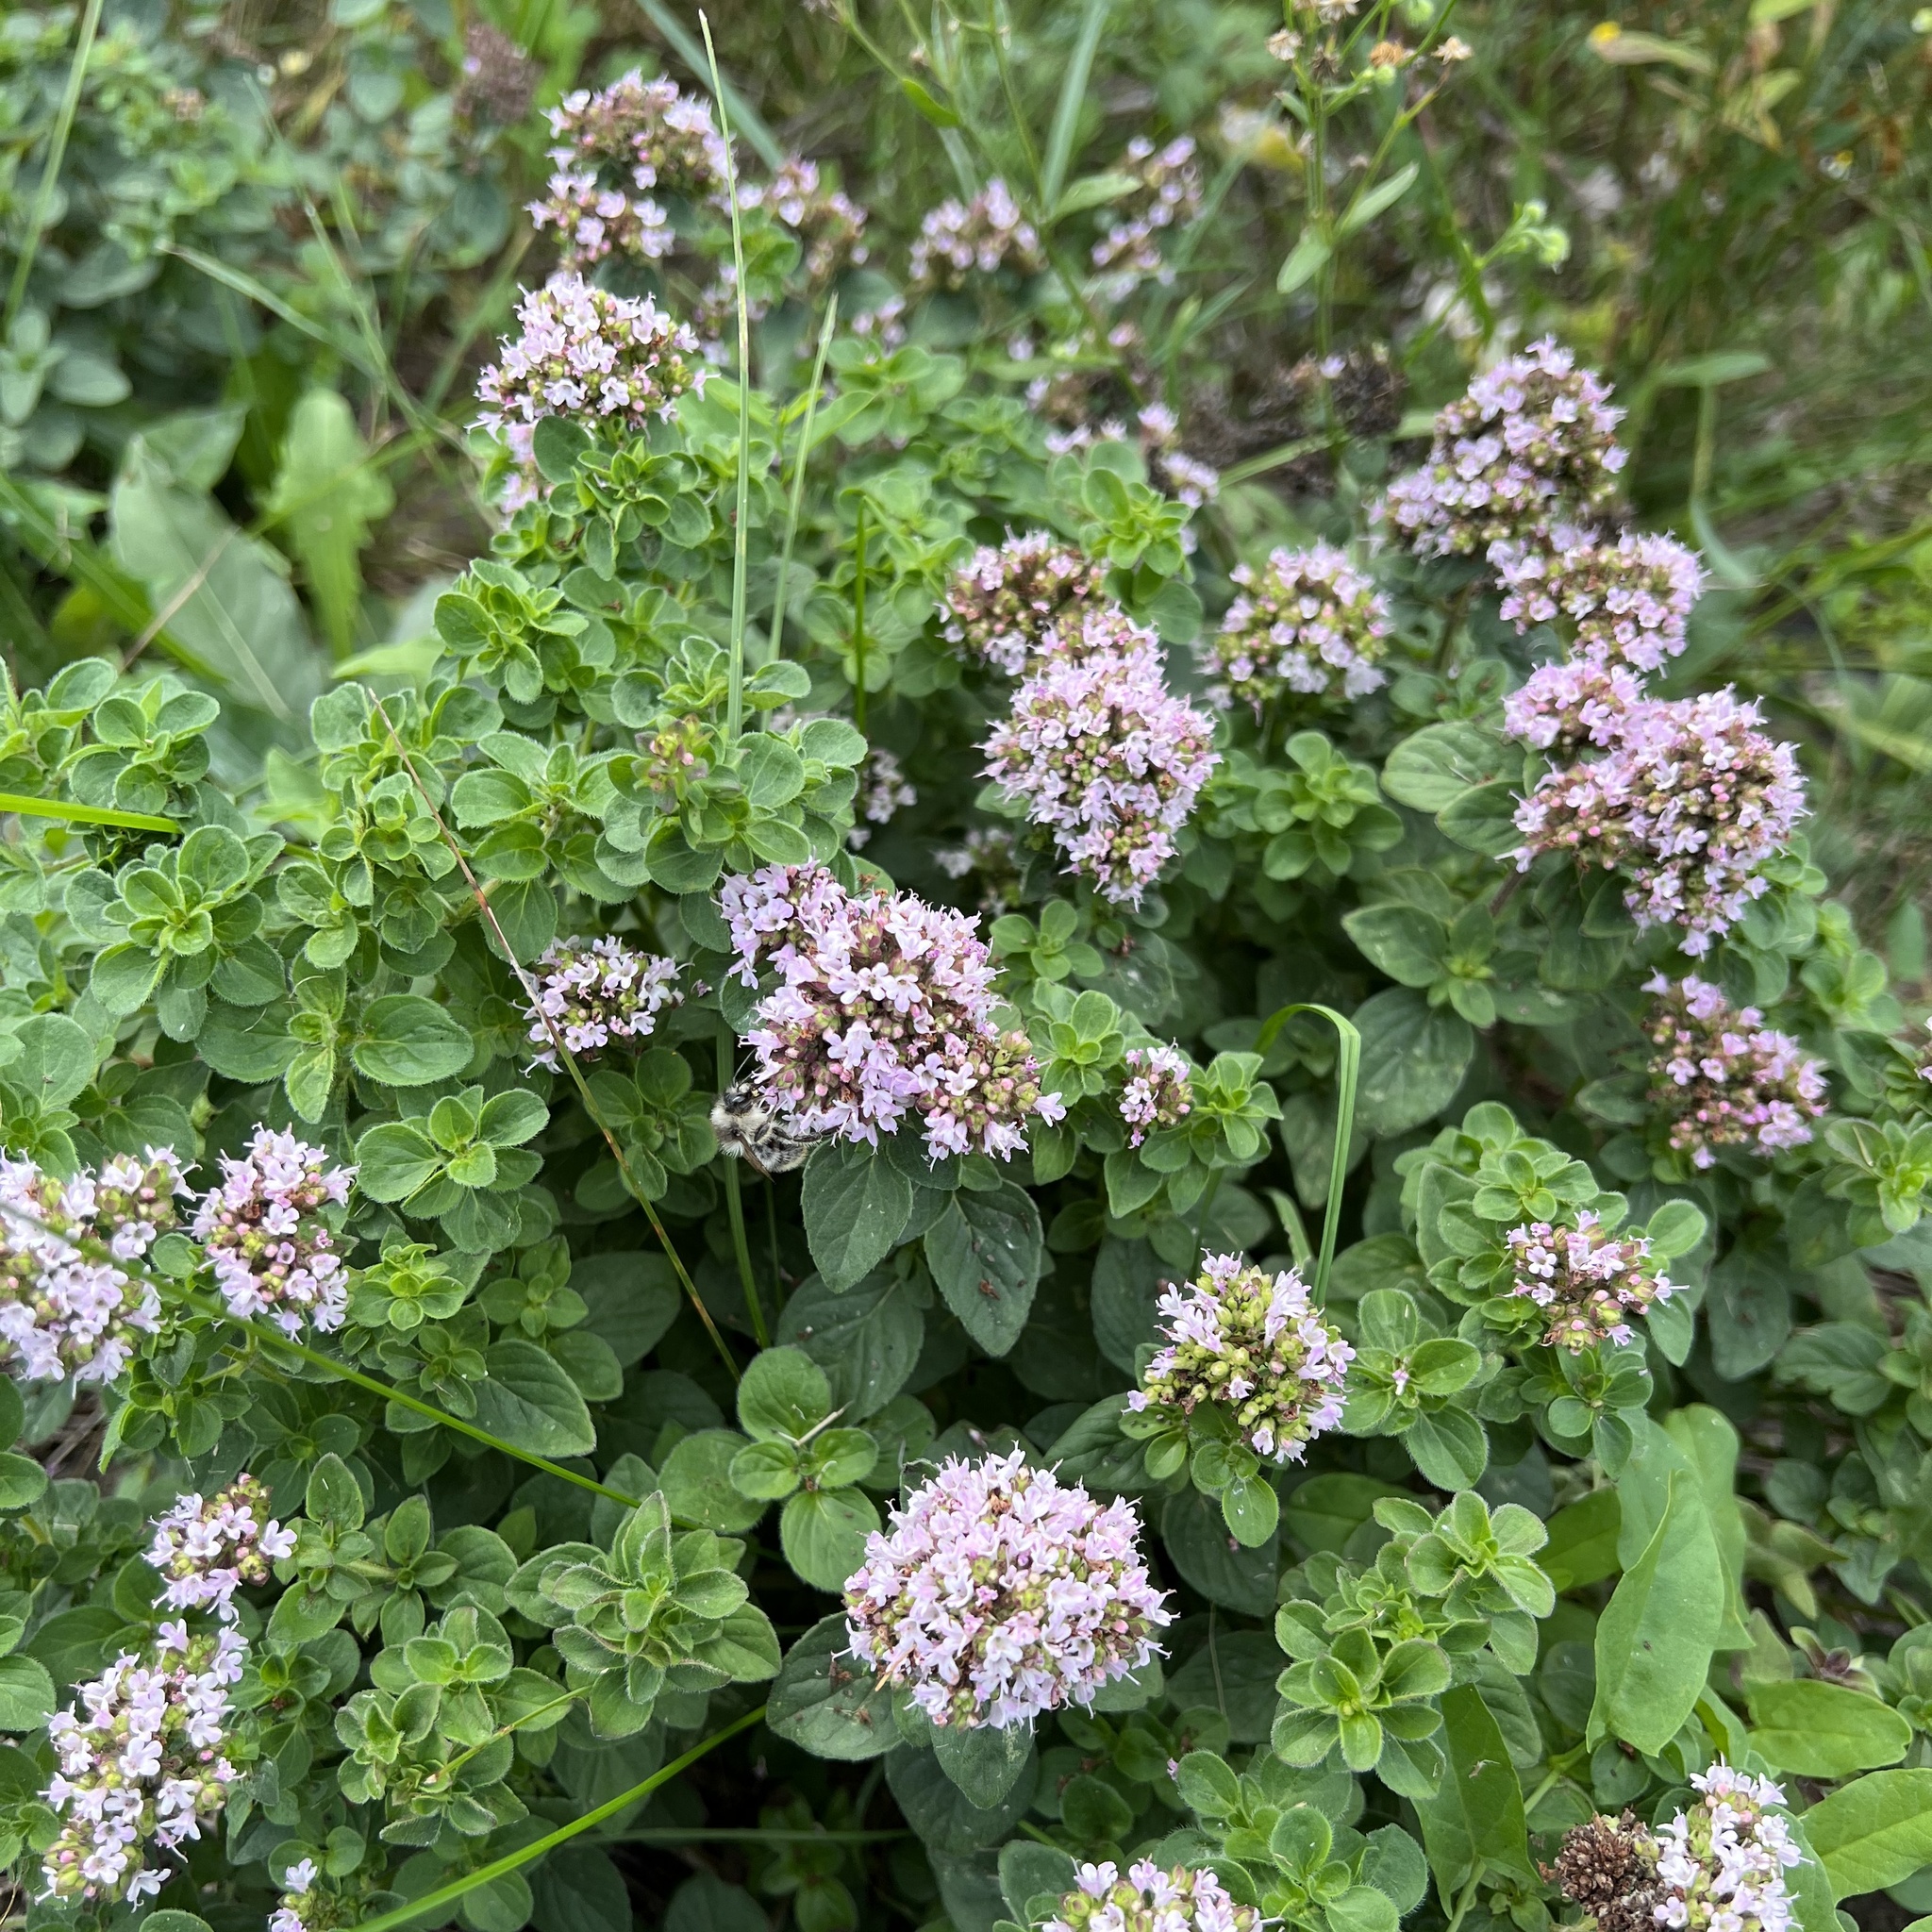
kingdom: Plantae
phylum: Tracheophyta
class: Magnoliopsida
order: Lamiales
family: Lamiaceae
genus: Origanum
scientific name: Origanum vulgare
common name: Wild marjoram
